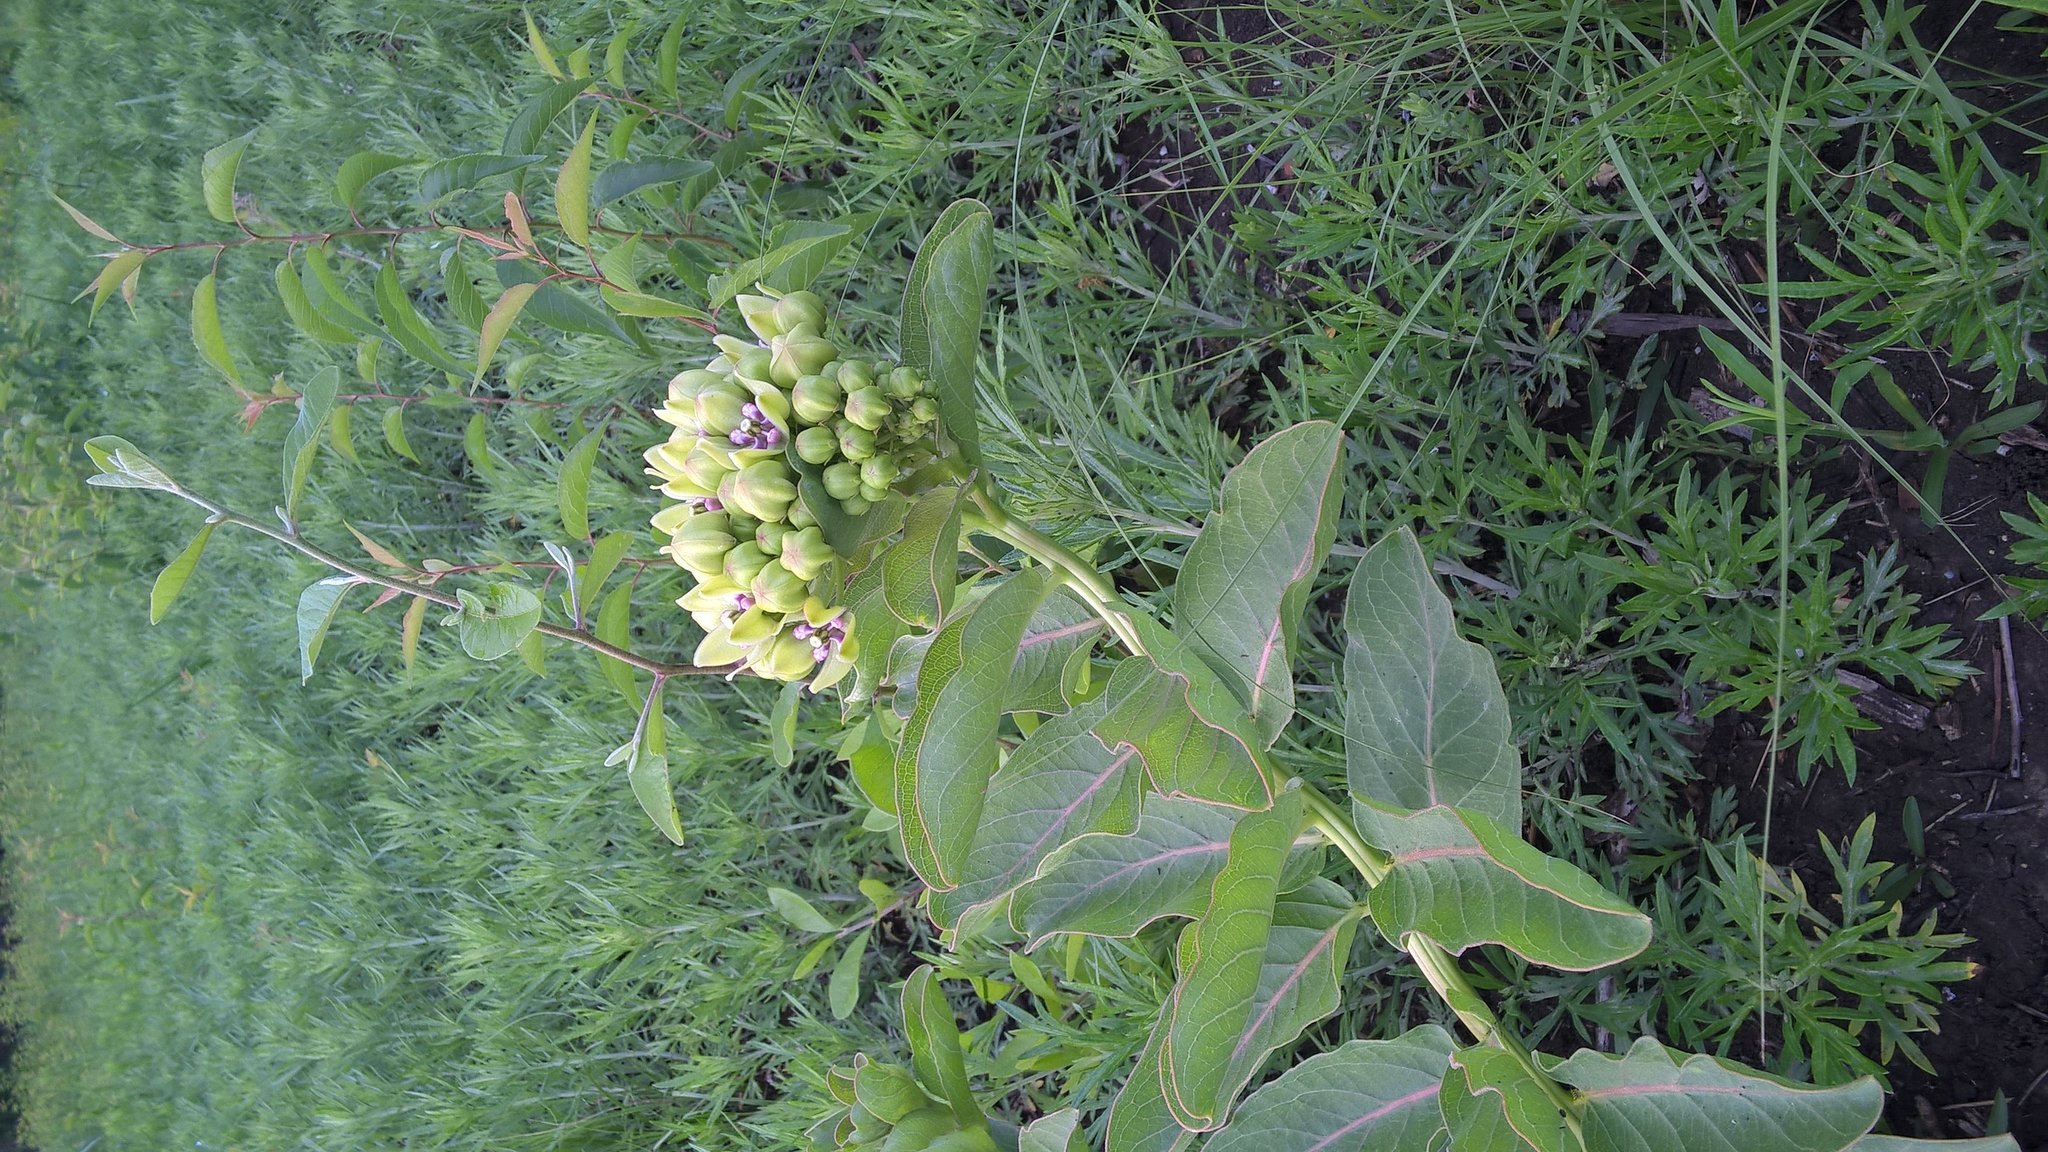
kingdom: Plantae
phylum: Tracheophyta
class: Magnoliopsida
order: Gentianales
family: Apocynaceae
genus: Asclepias
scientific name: Asclepias viridis
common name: Antelope-horns
